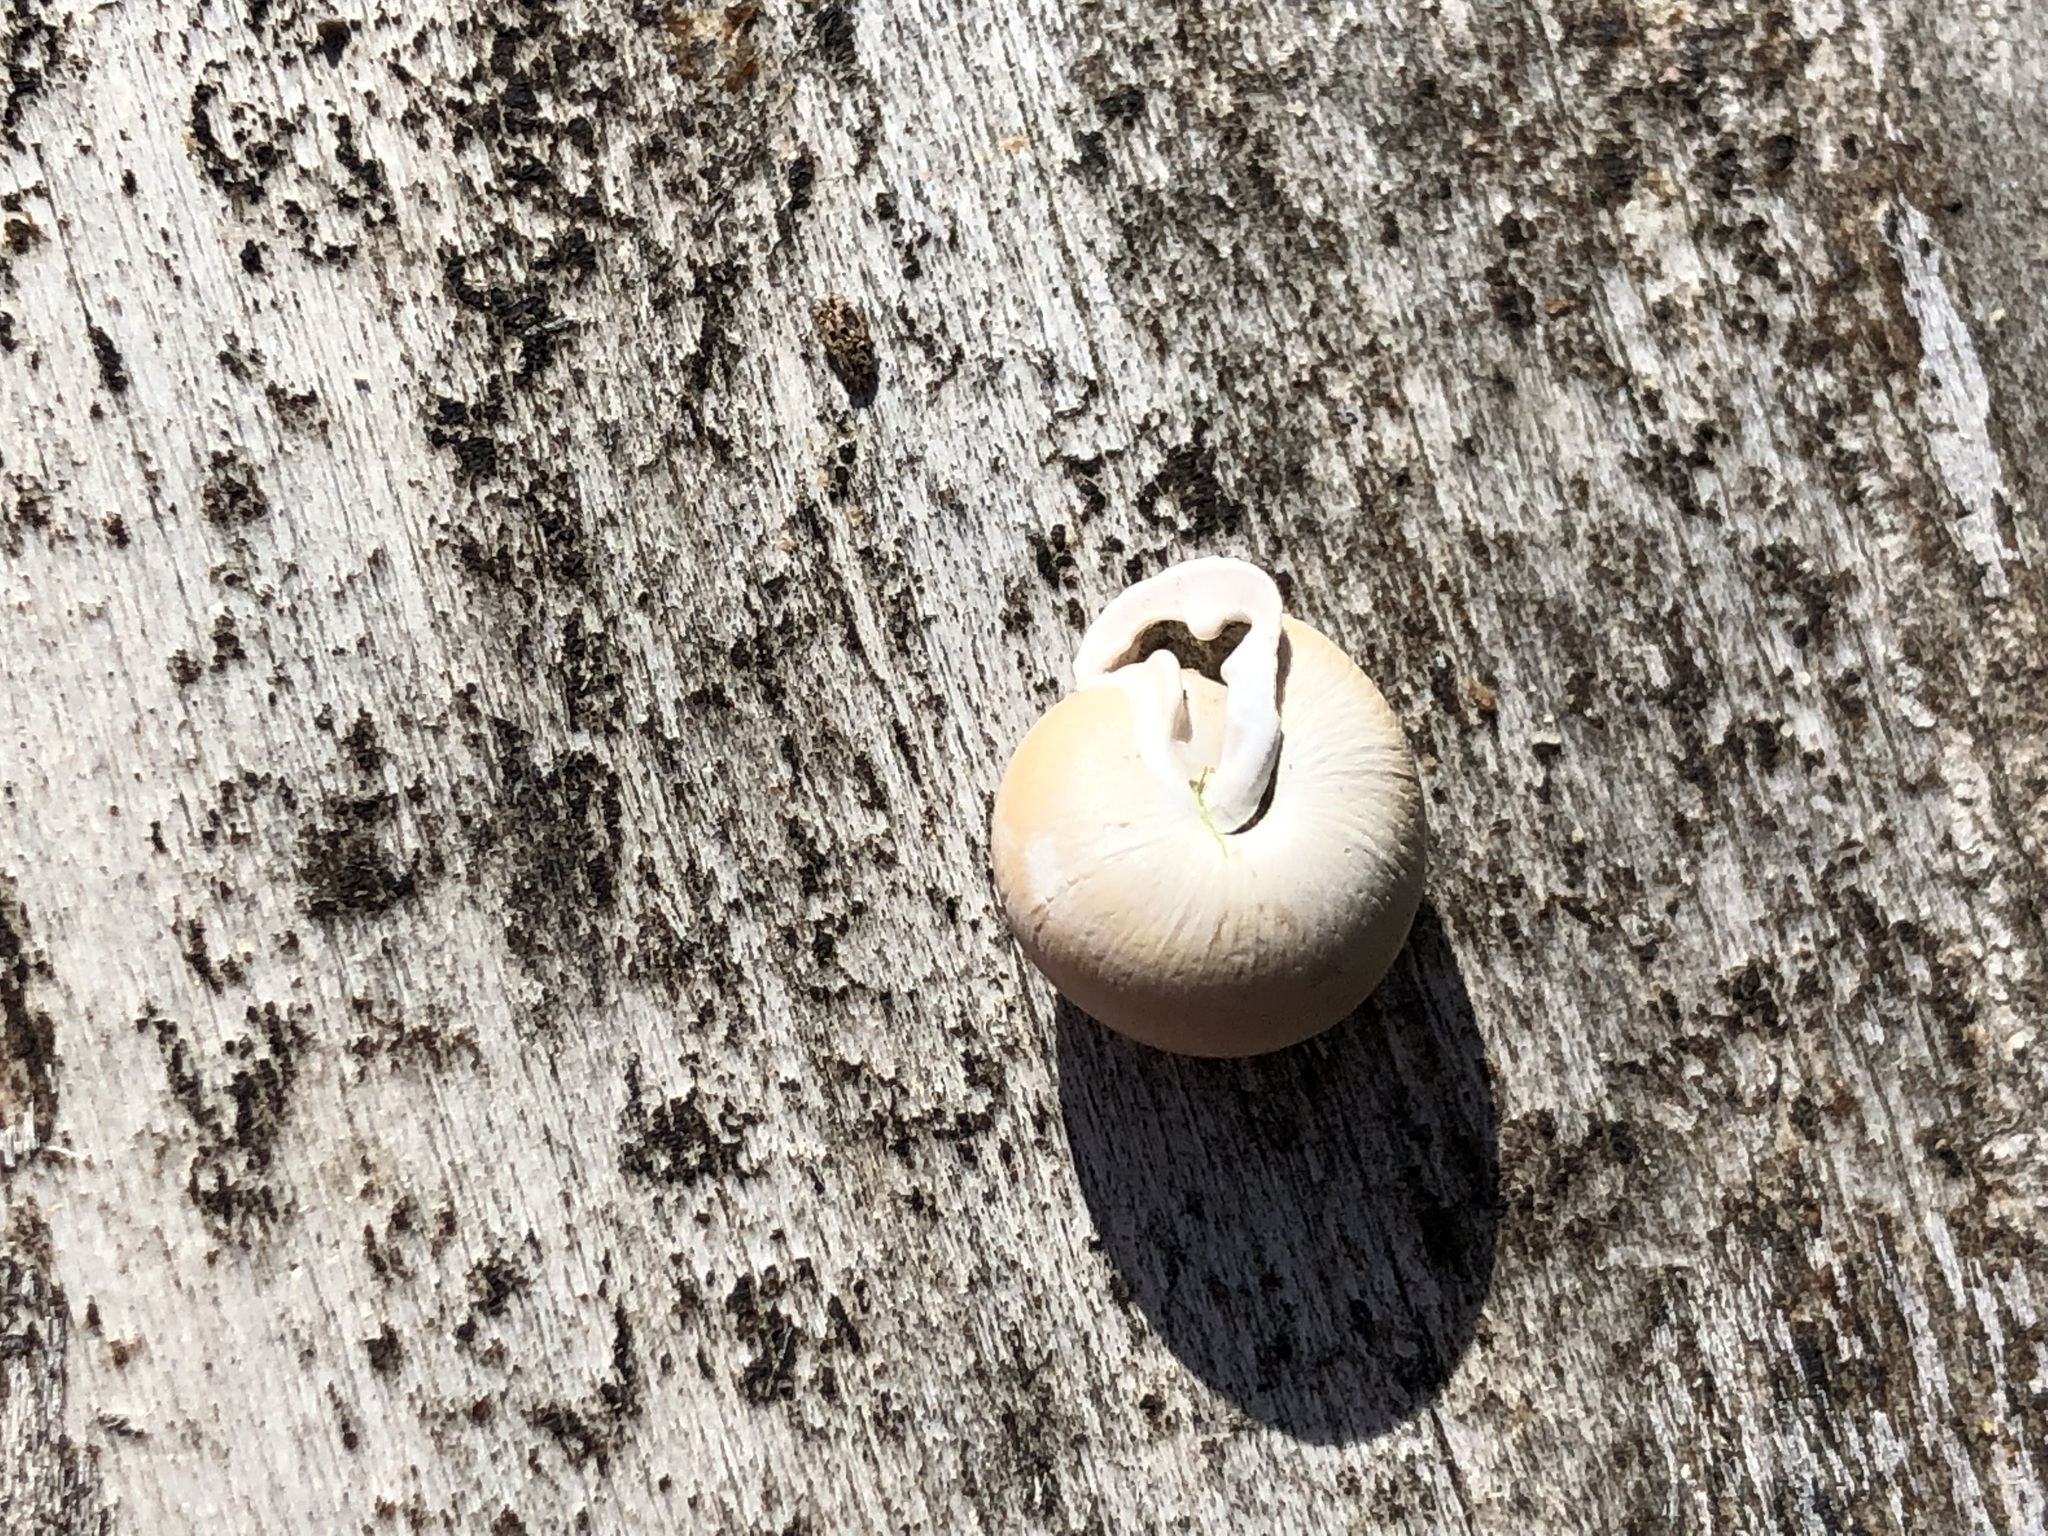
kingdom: Animalia
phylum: Mollusca
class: Gastropoda
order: Stylommatophora
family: Helicidae
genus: Isognomostoma
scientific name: Isognomostoma isognomostomos
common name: Mask snail
